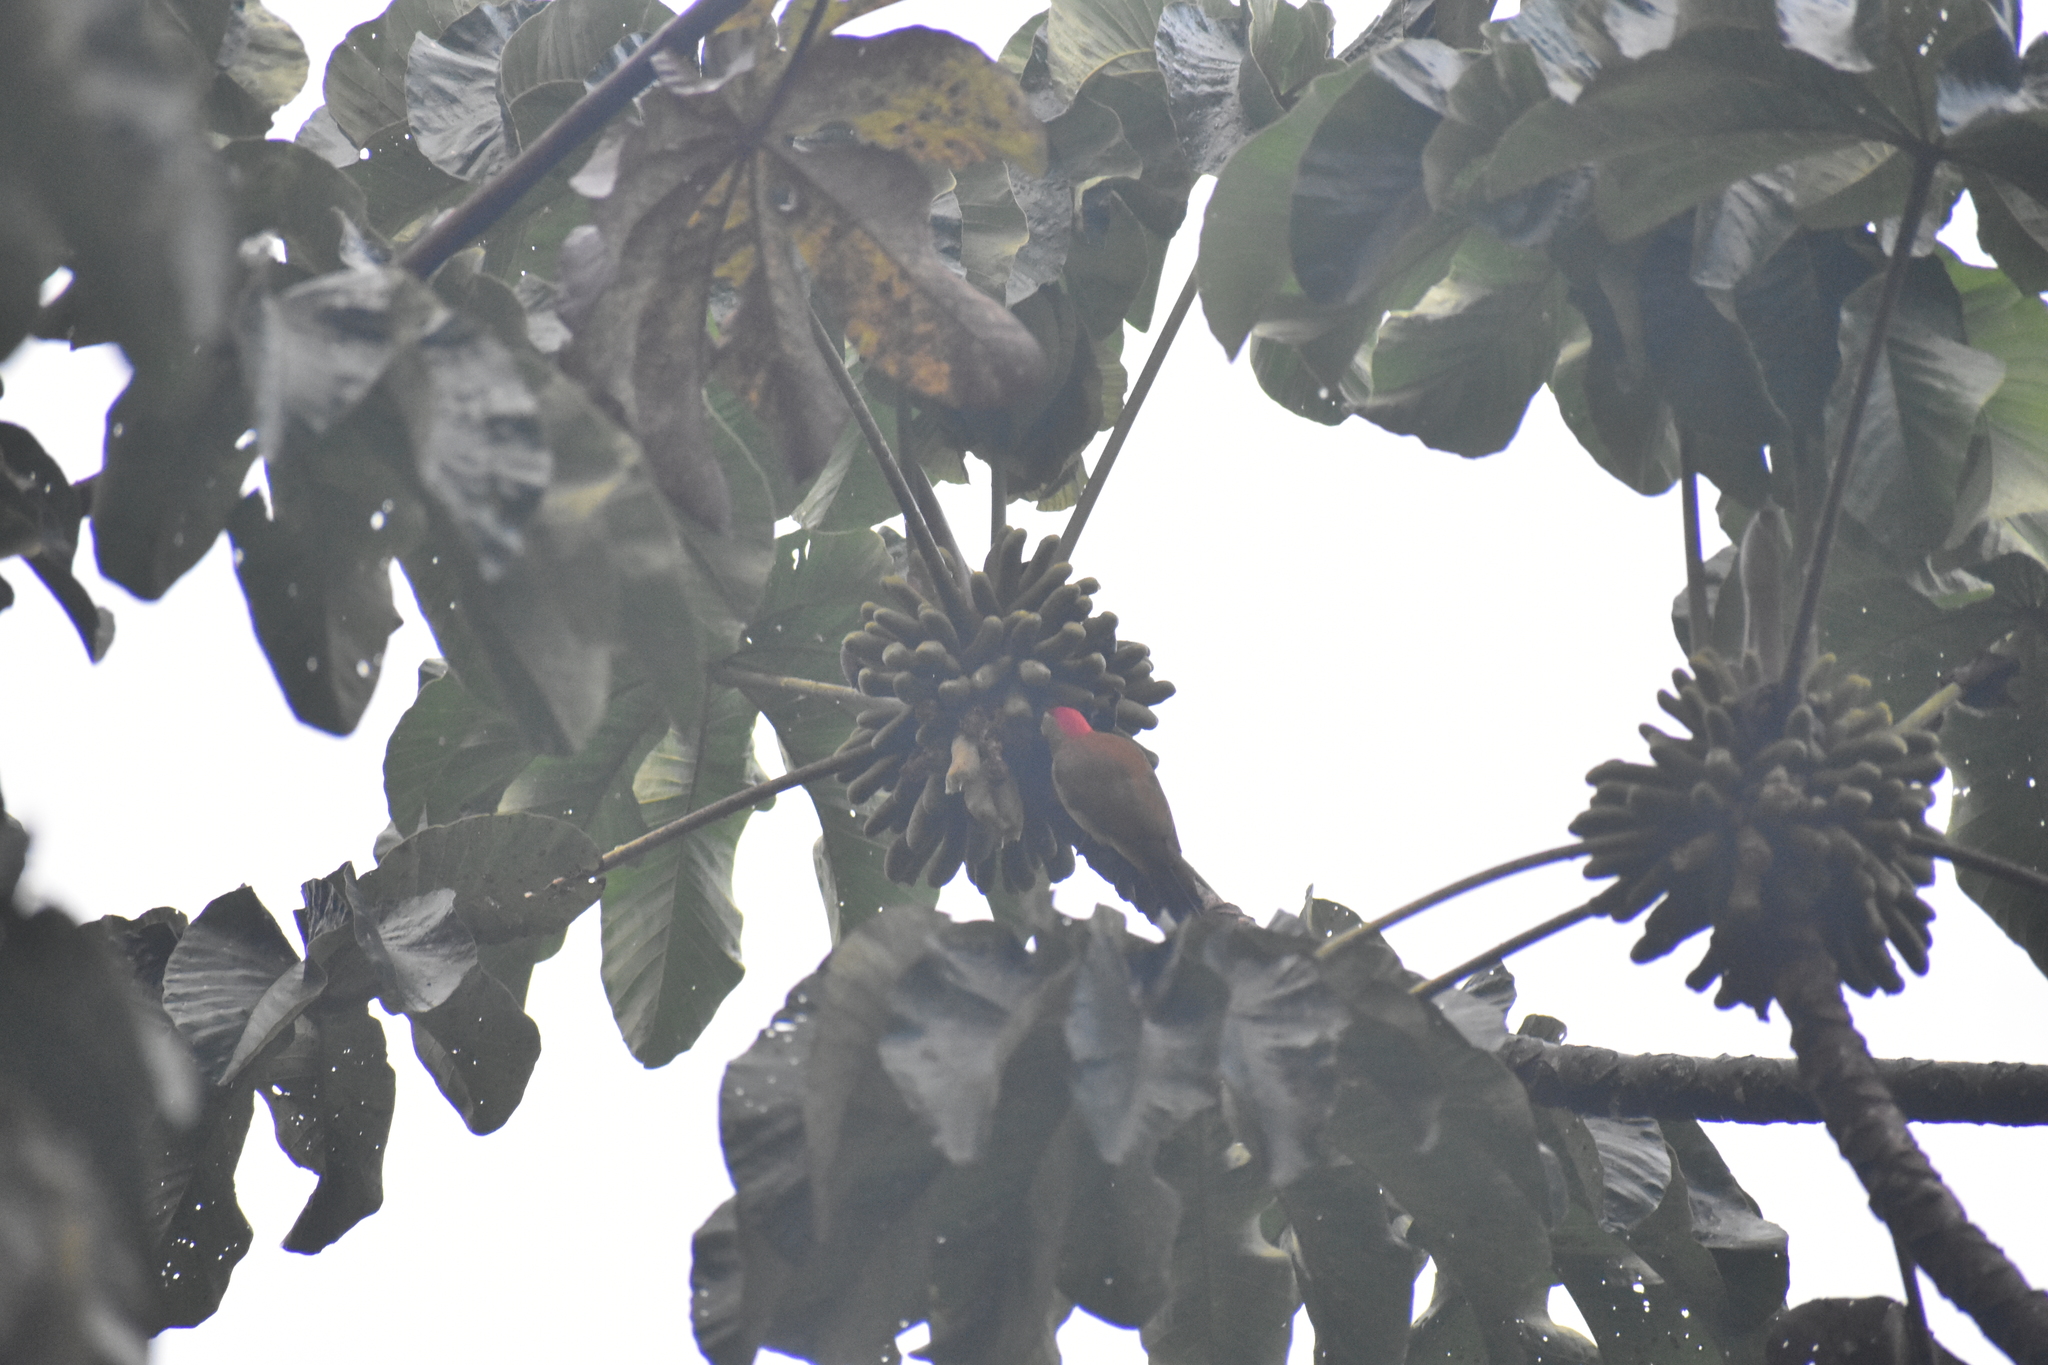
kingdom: Animalia
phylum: Chordata
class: Aves
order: Piciformes
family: Picidae
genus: Colaptes
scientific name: Colaptes rubiginosus
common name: Golden-olive woodpecker
